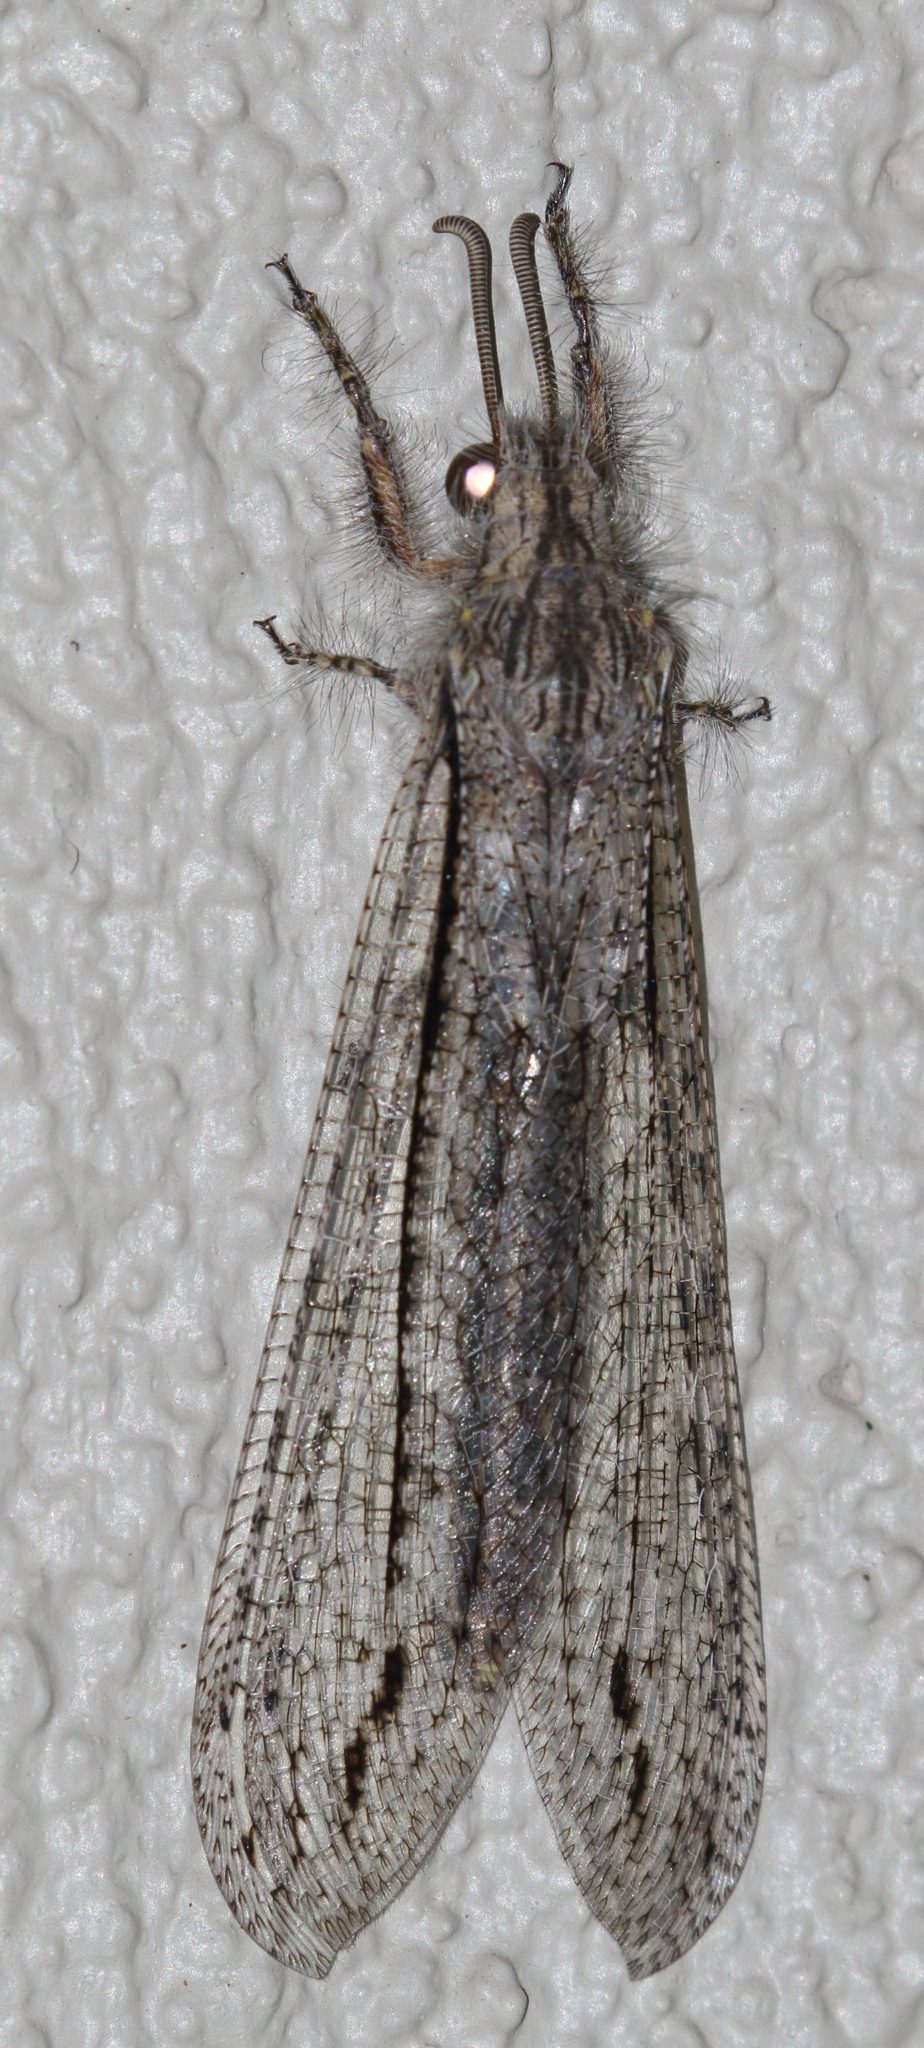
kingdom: Animalia
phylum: Arthropoda
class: Insecta
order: Neuroptera
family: Myrmeleontidae
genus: Centroclisis
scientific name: Centroclisis mendax
